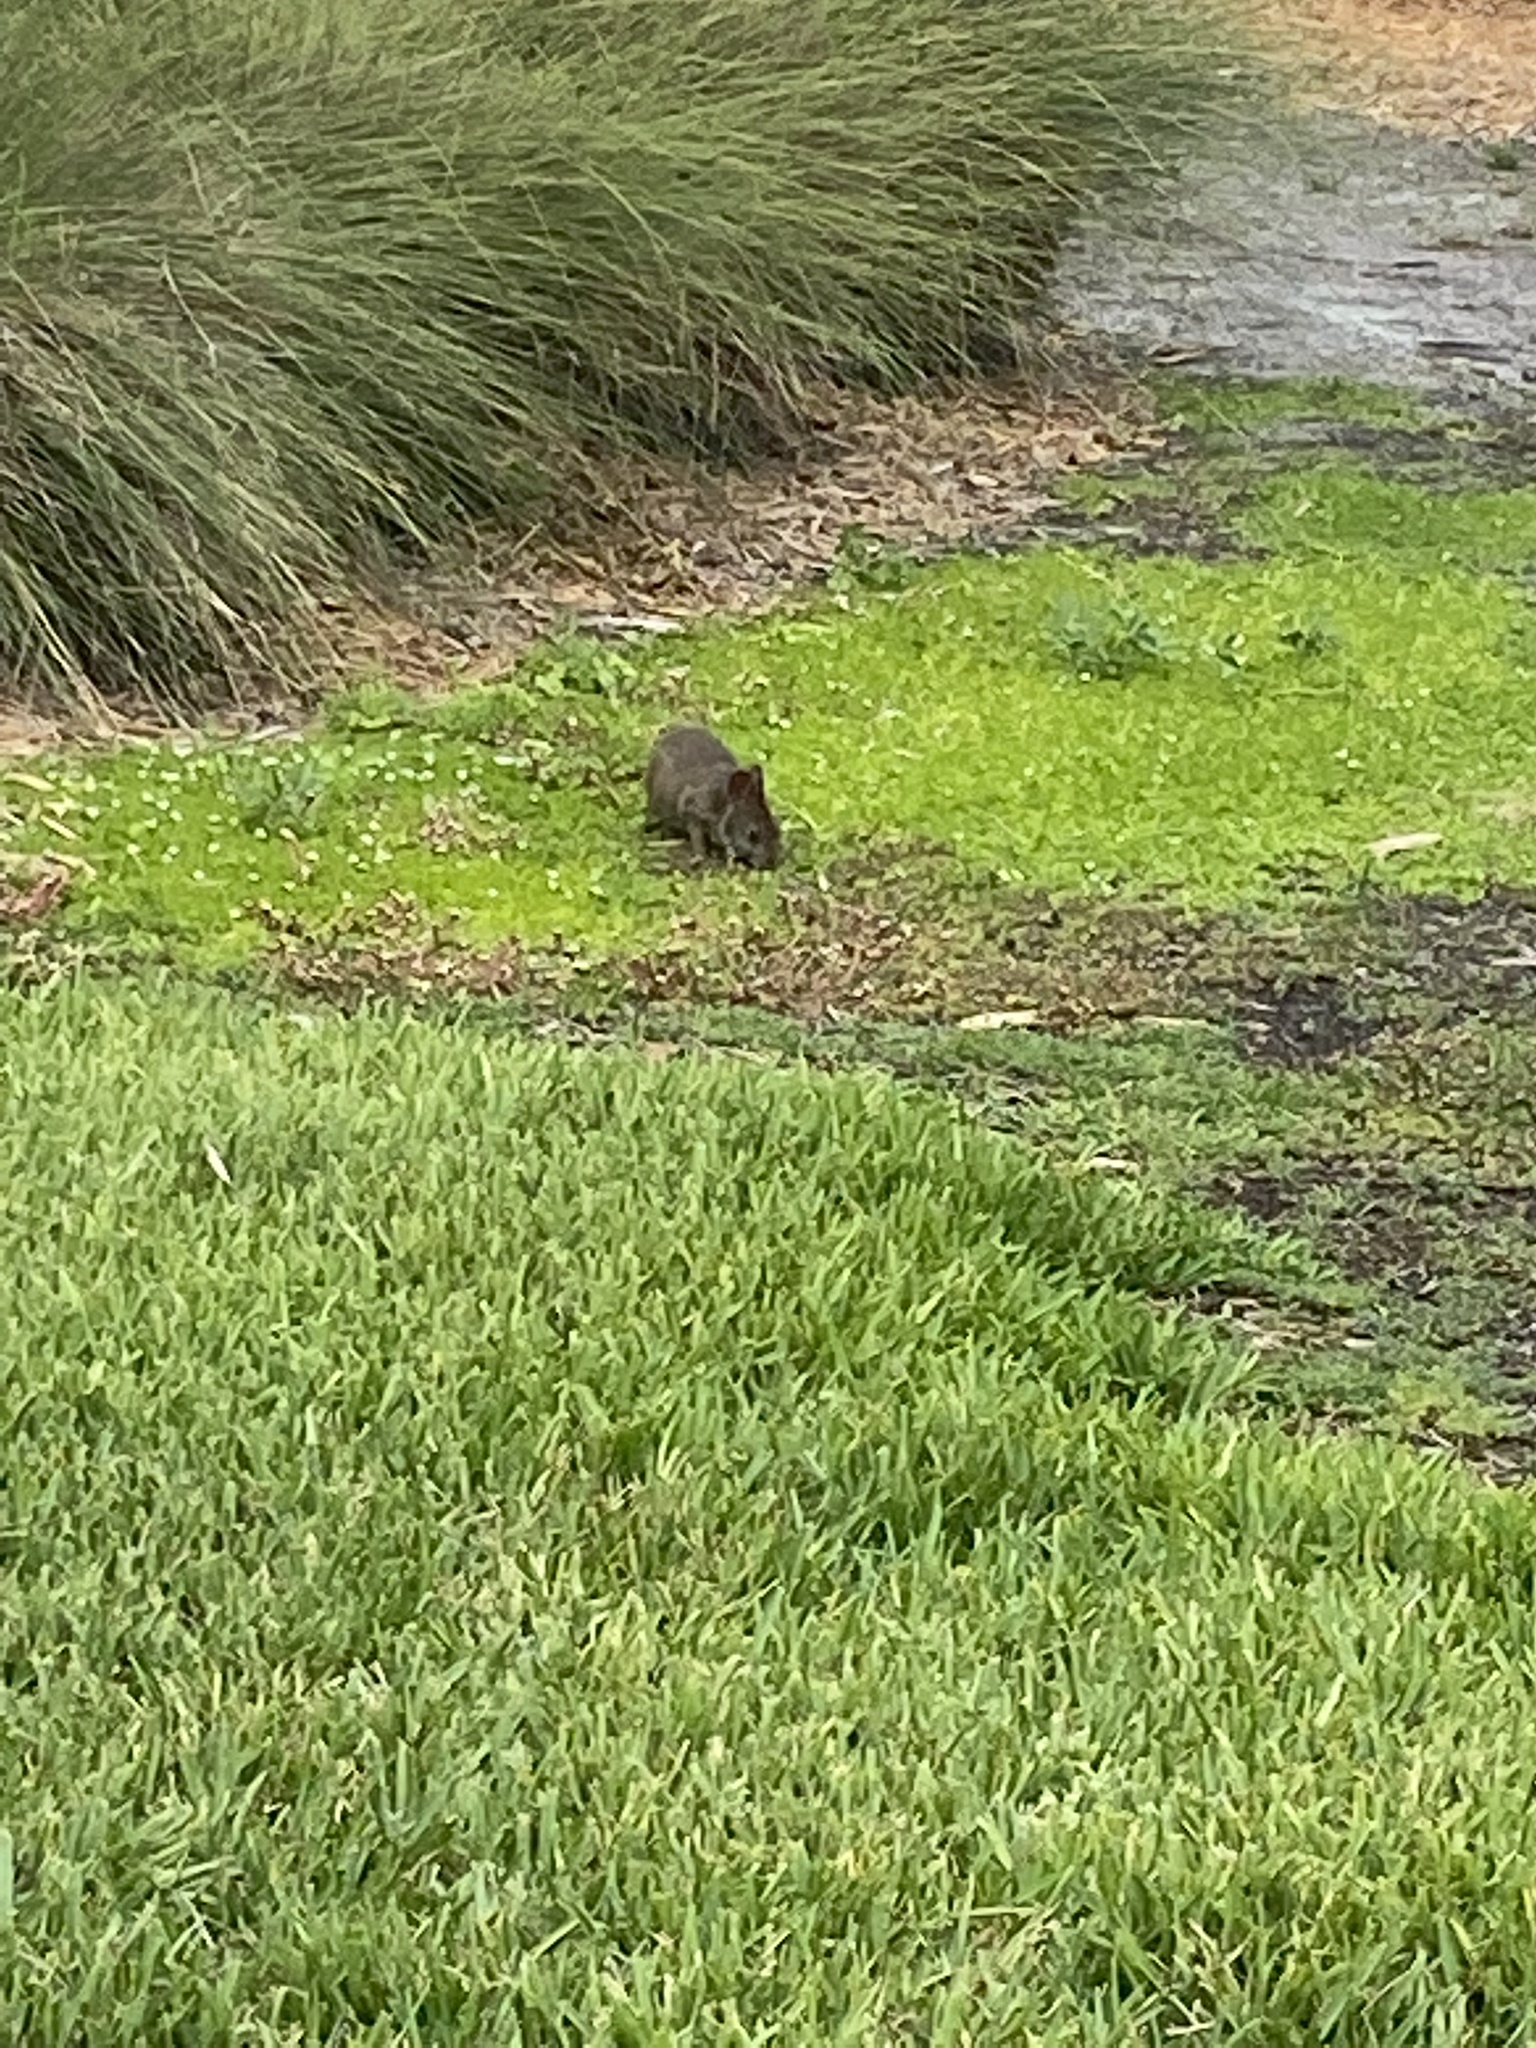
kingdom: Animalia
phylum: Chordata
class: Mammalia
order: Lagomorpha
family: Leporidae
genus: Sylvilagus
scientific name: Sylvilagus palustris
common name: Marsh rabbit
